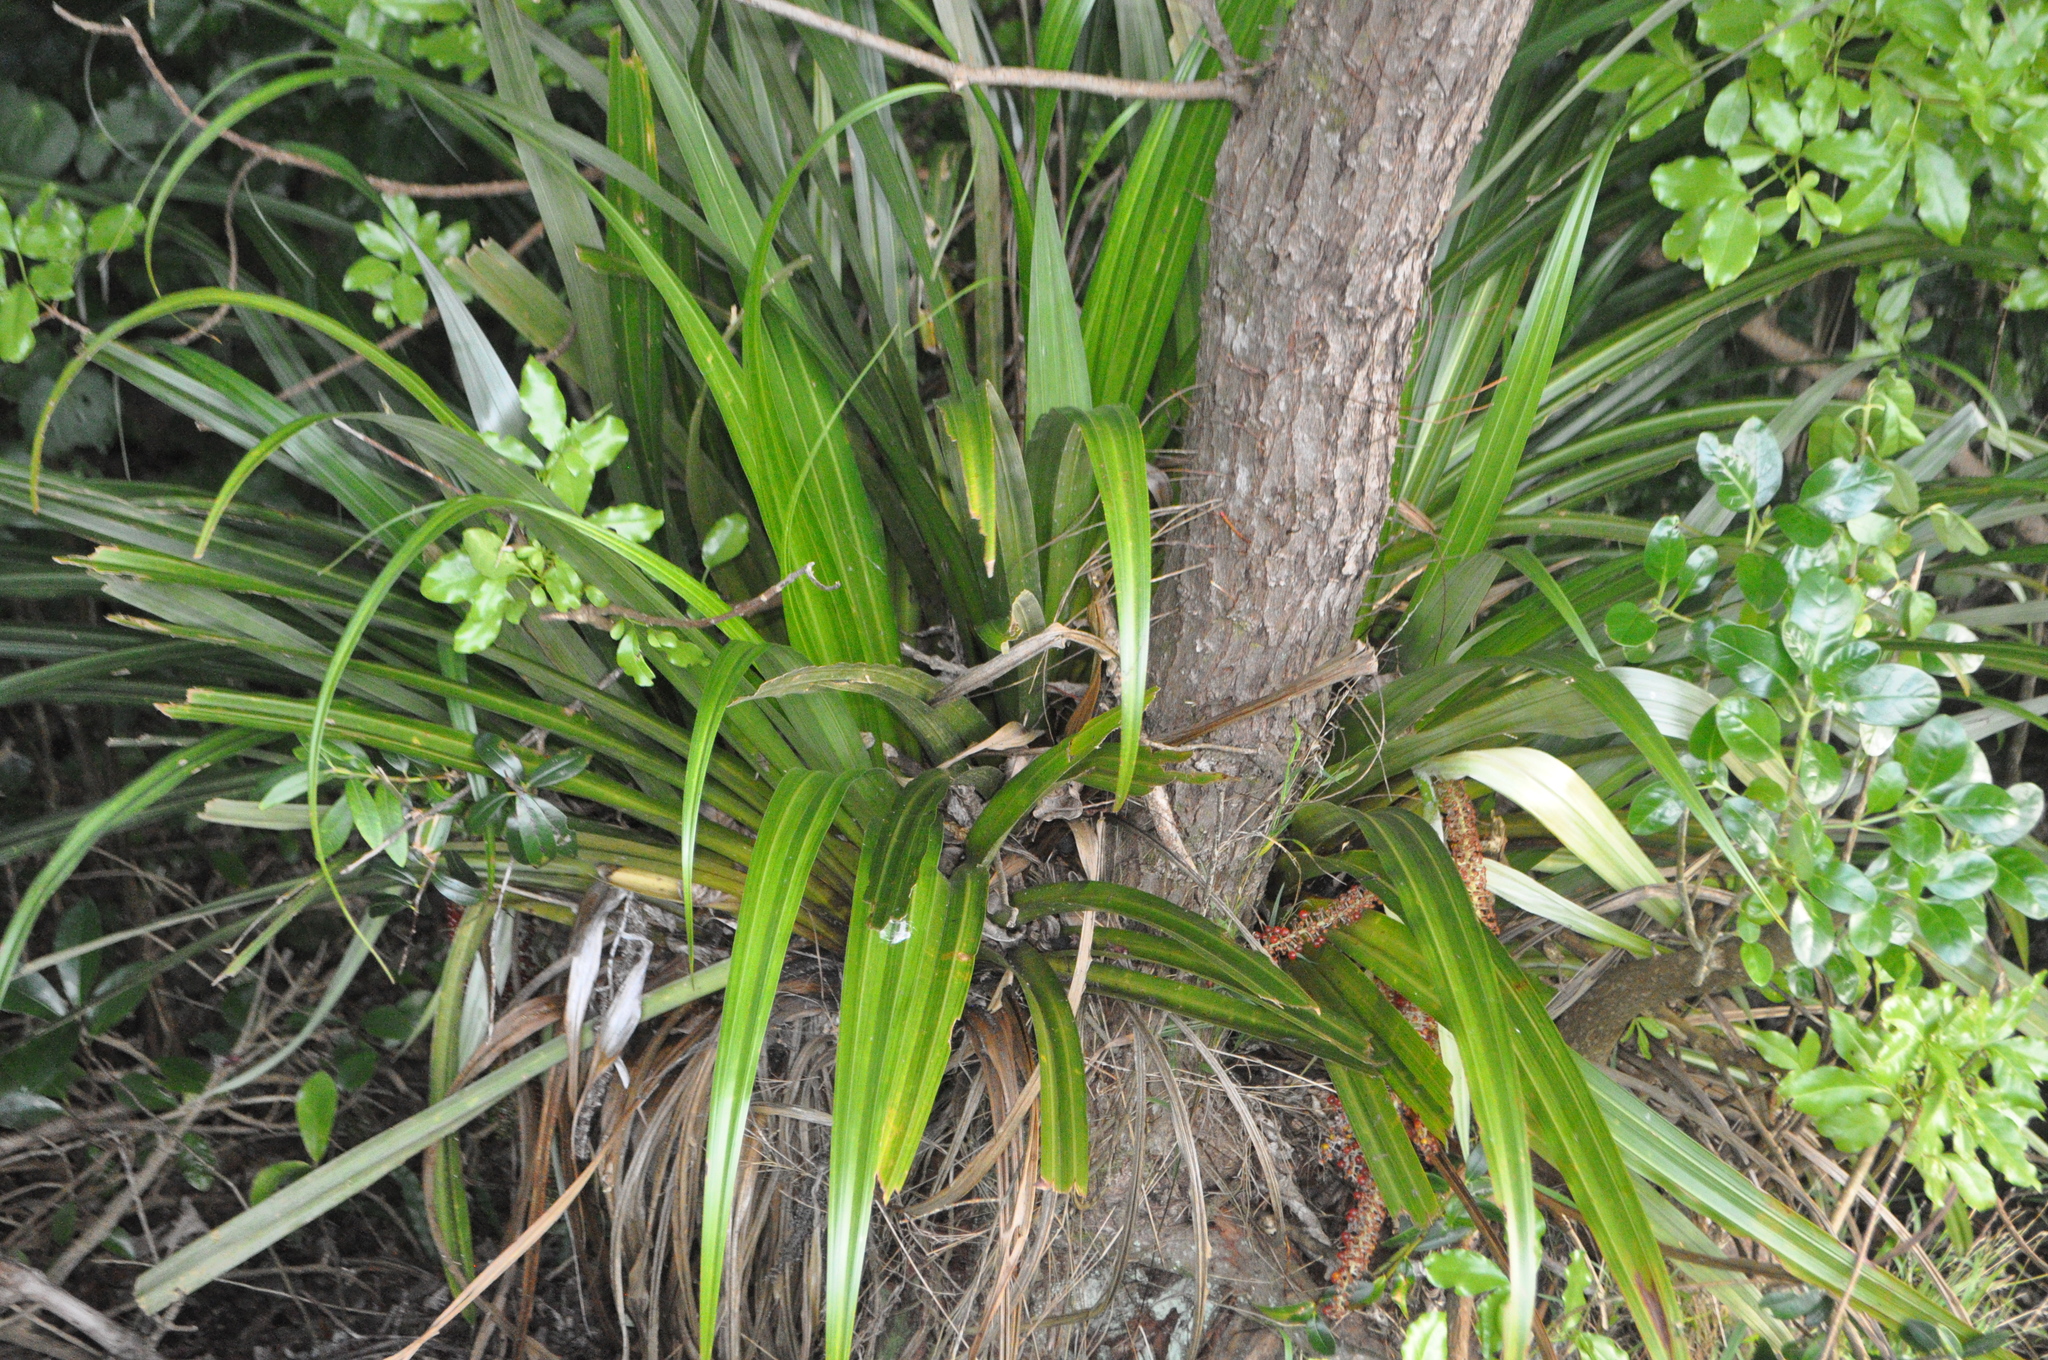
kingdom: Plantae
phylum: Tracheophyta
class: Liliopsida
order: Asparagales
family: Asteliaceae
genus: Astelia
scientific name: Astelia hastata
